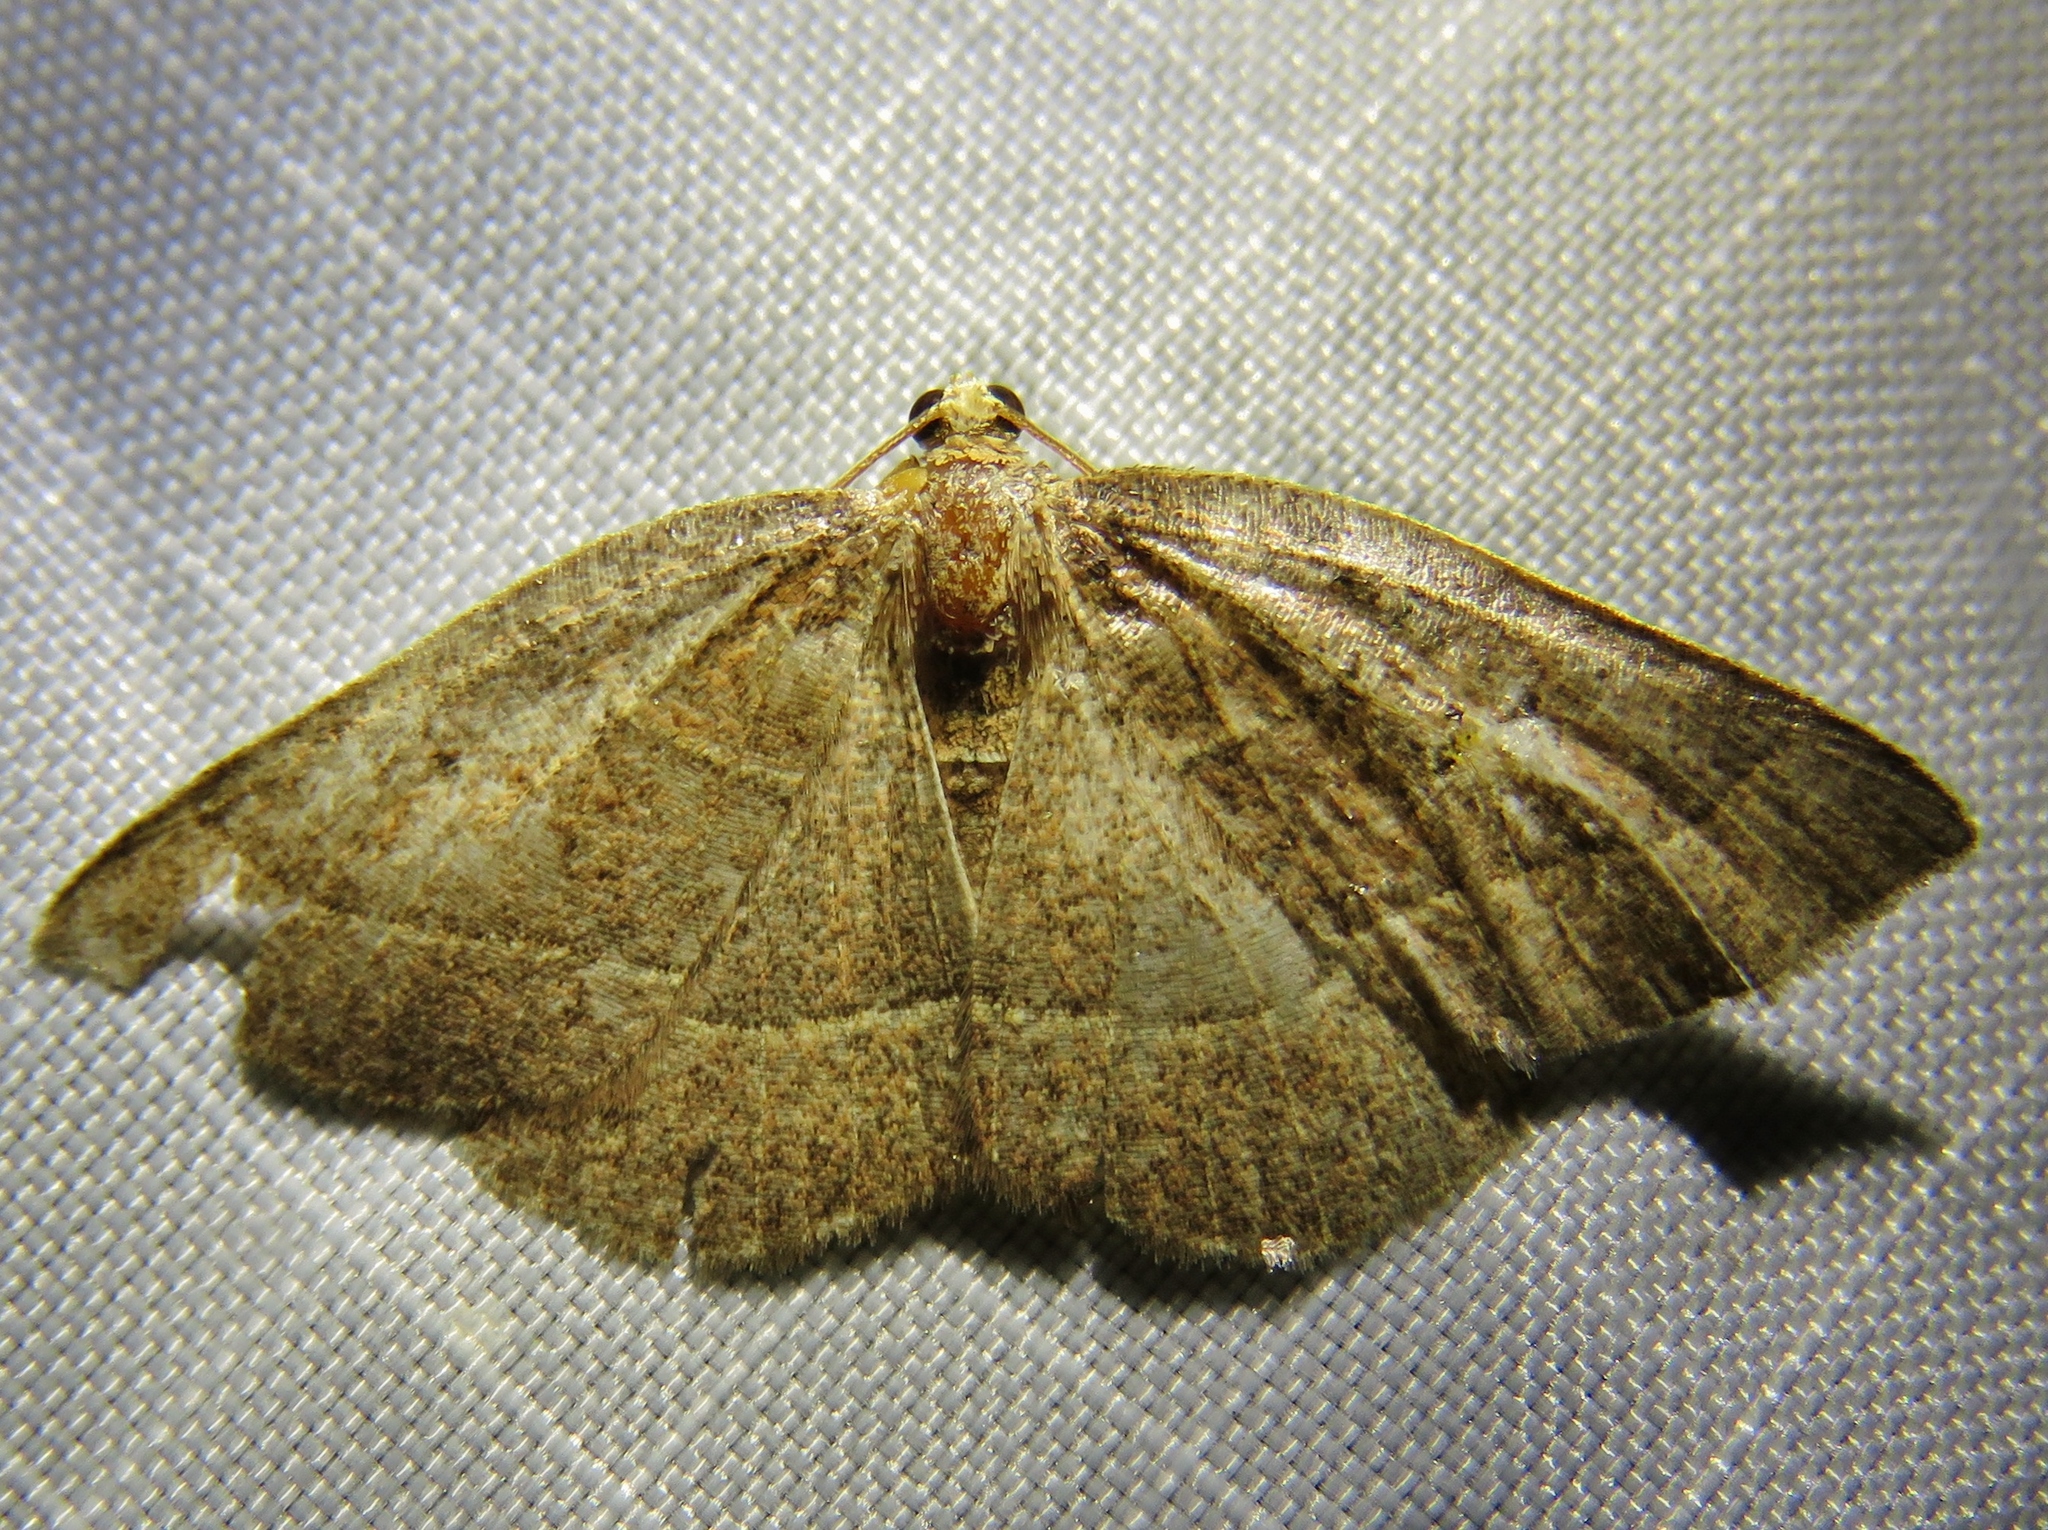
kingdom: Animalia
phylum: Arthropoda
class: Insecta
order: Lepidoptera
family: Geometridae
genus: Episemasia
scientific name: Episemasia cervinaria
